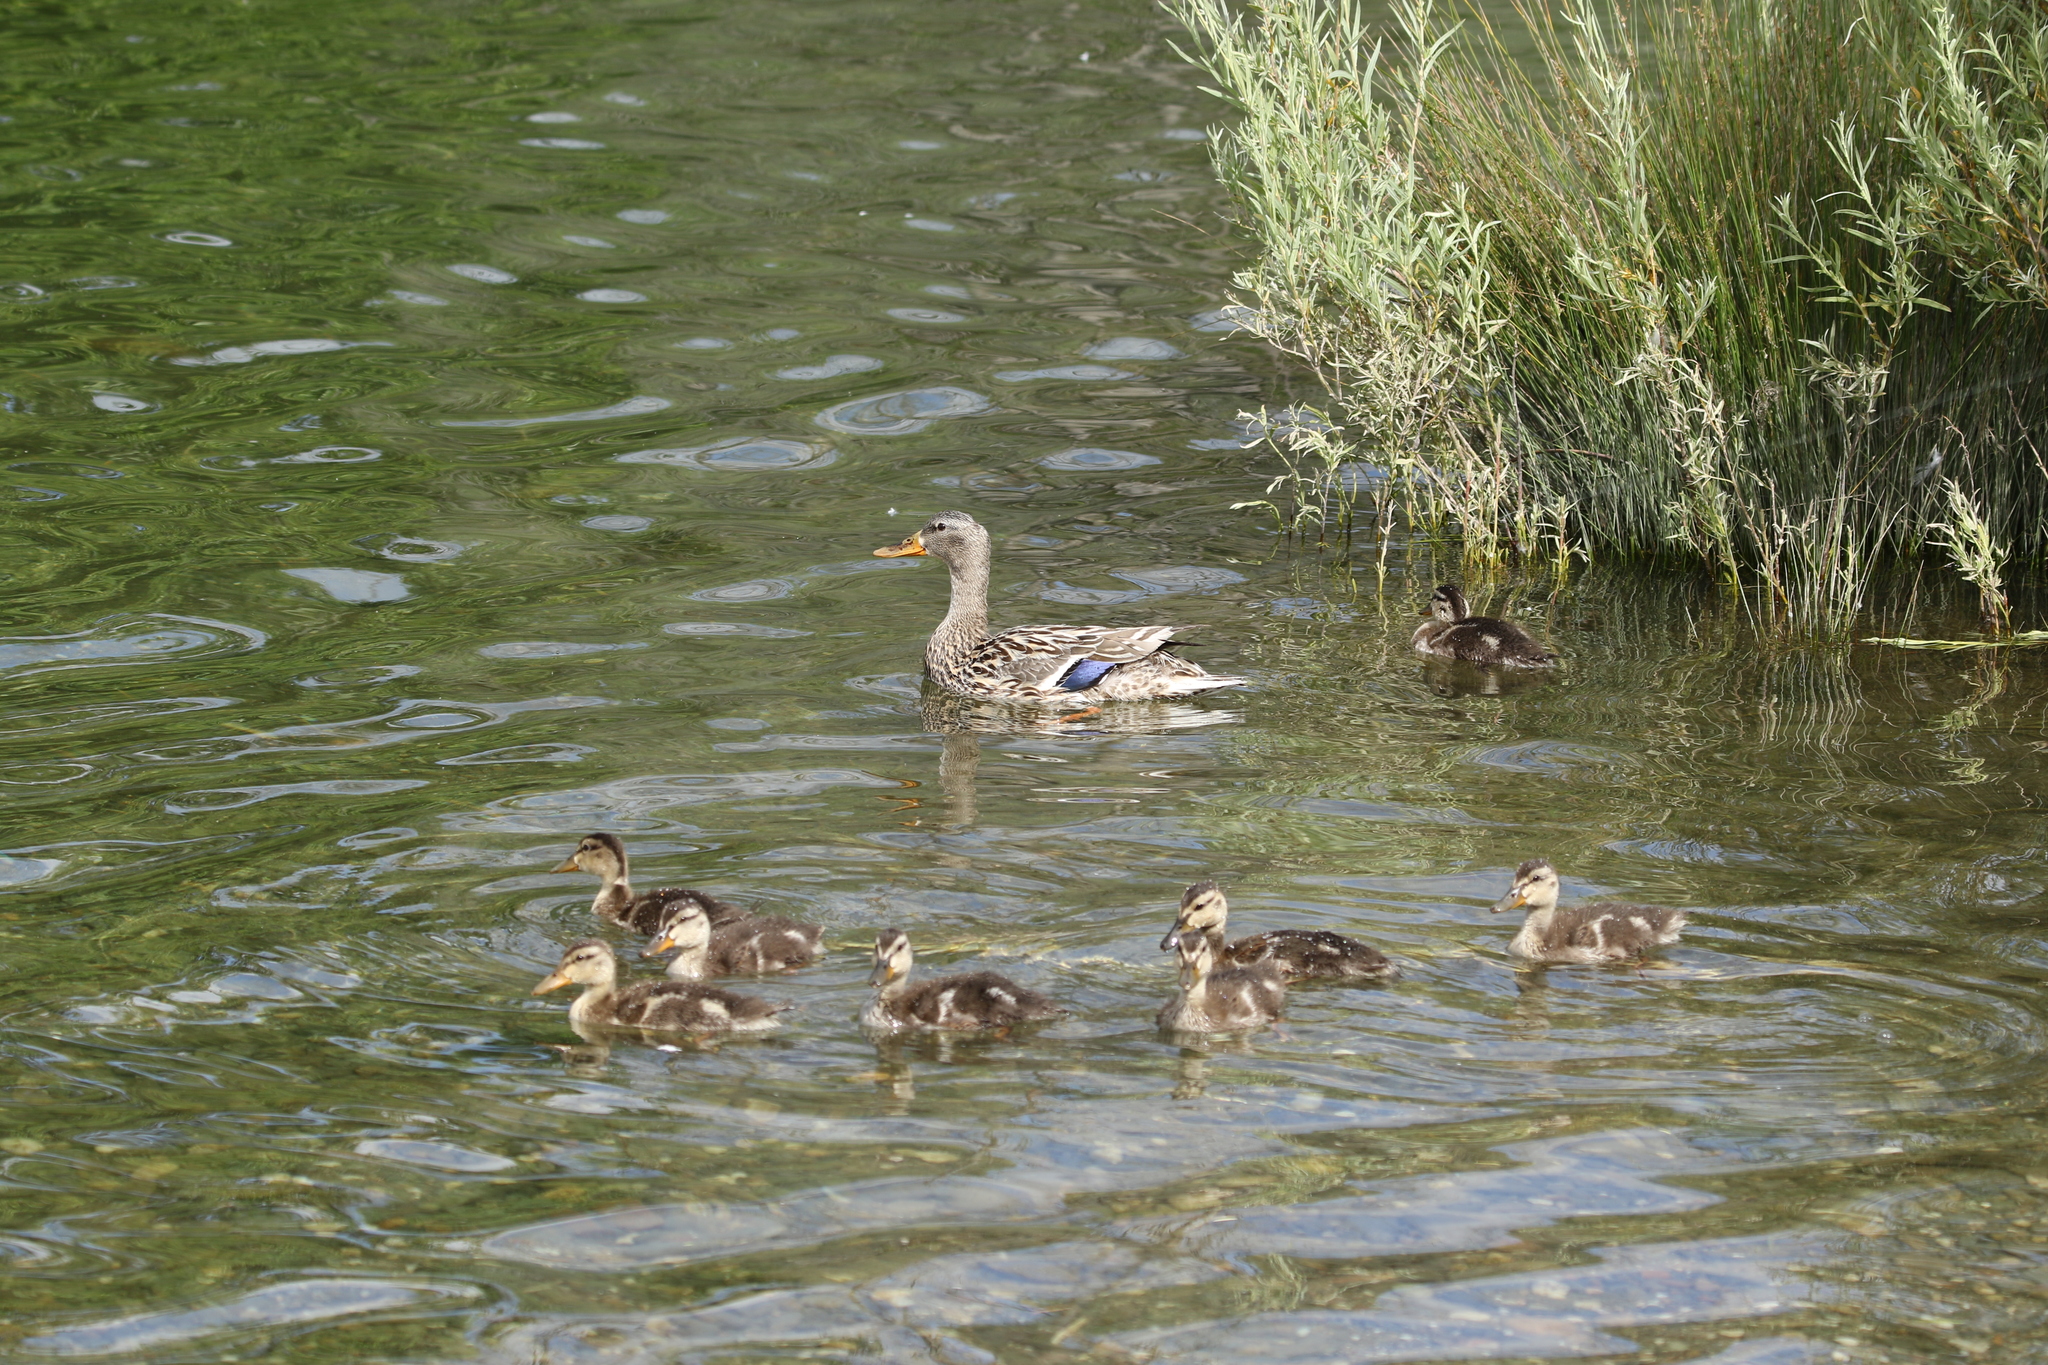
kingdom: Animalia
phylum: Chordata
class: Aves
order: Anseriformes
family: Anatidae
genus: Anas
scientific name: Anas platyrhynchos
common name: Mallard
